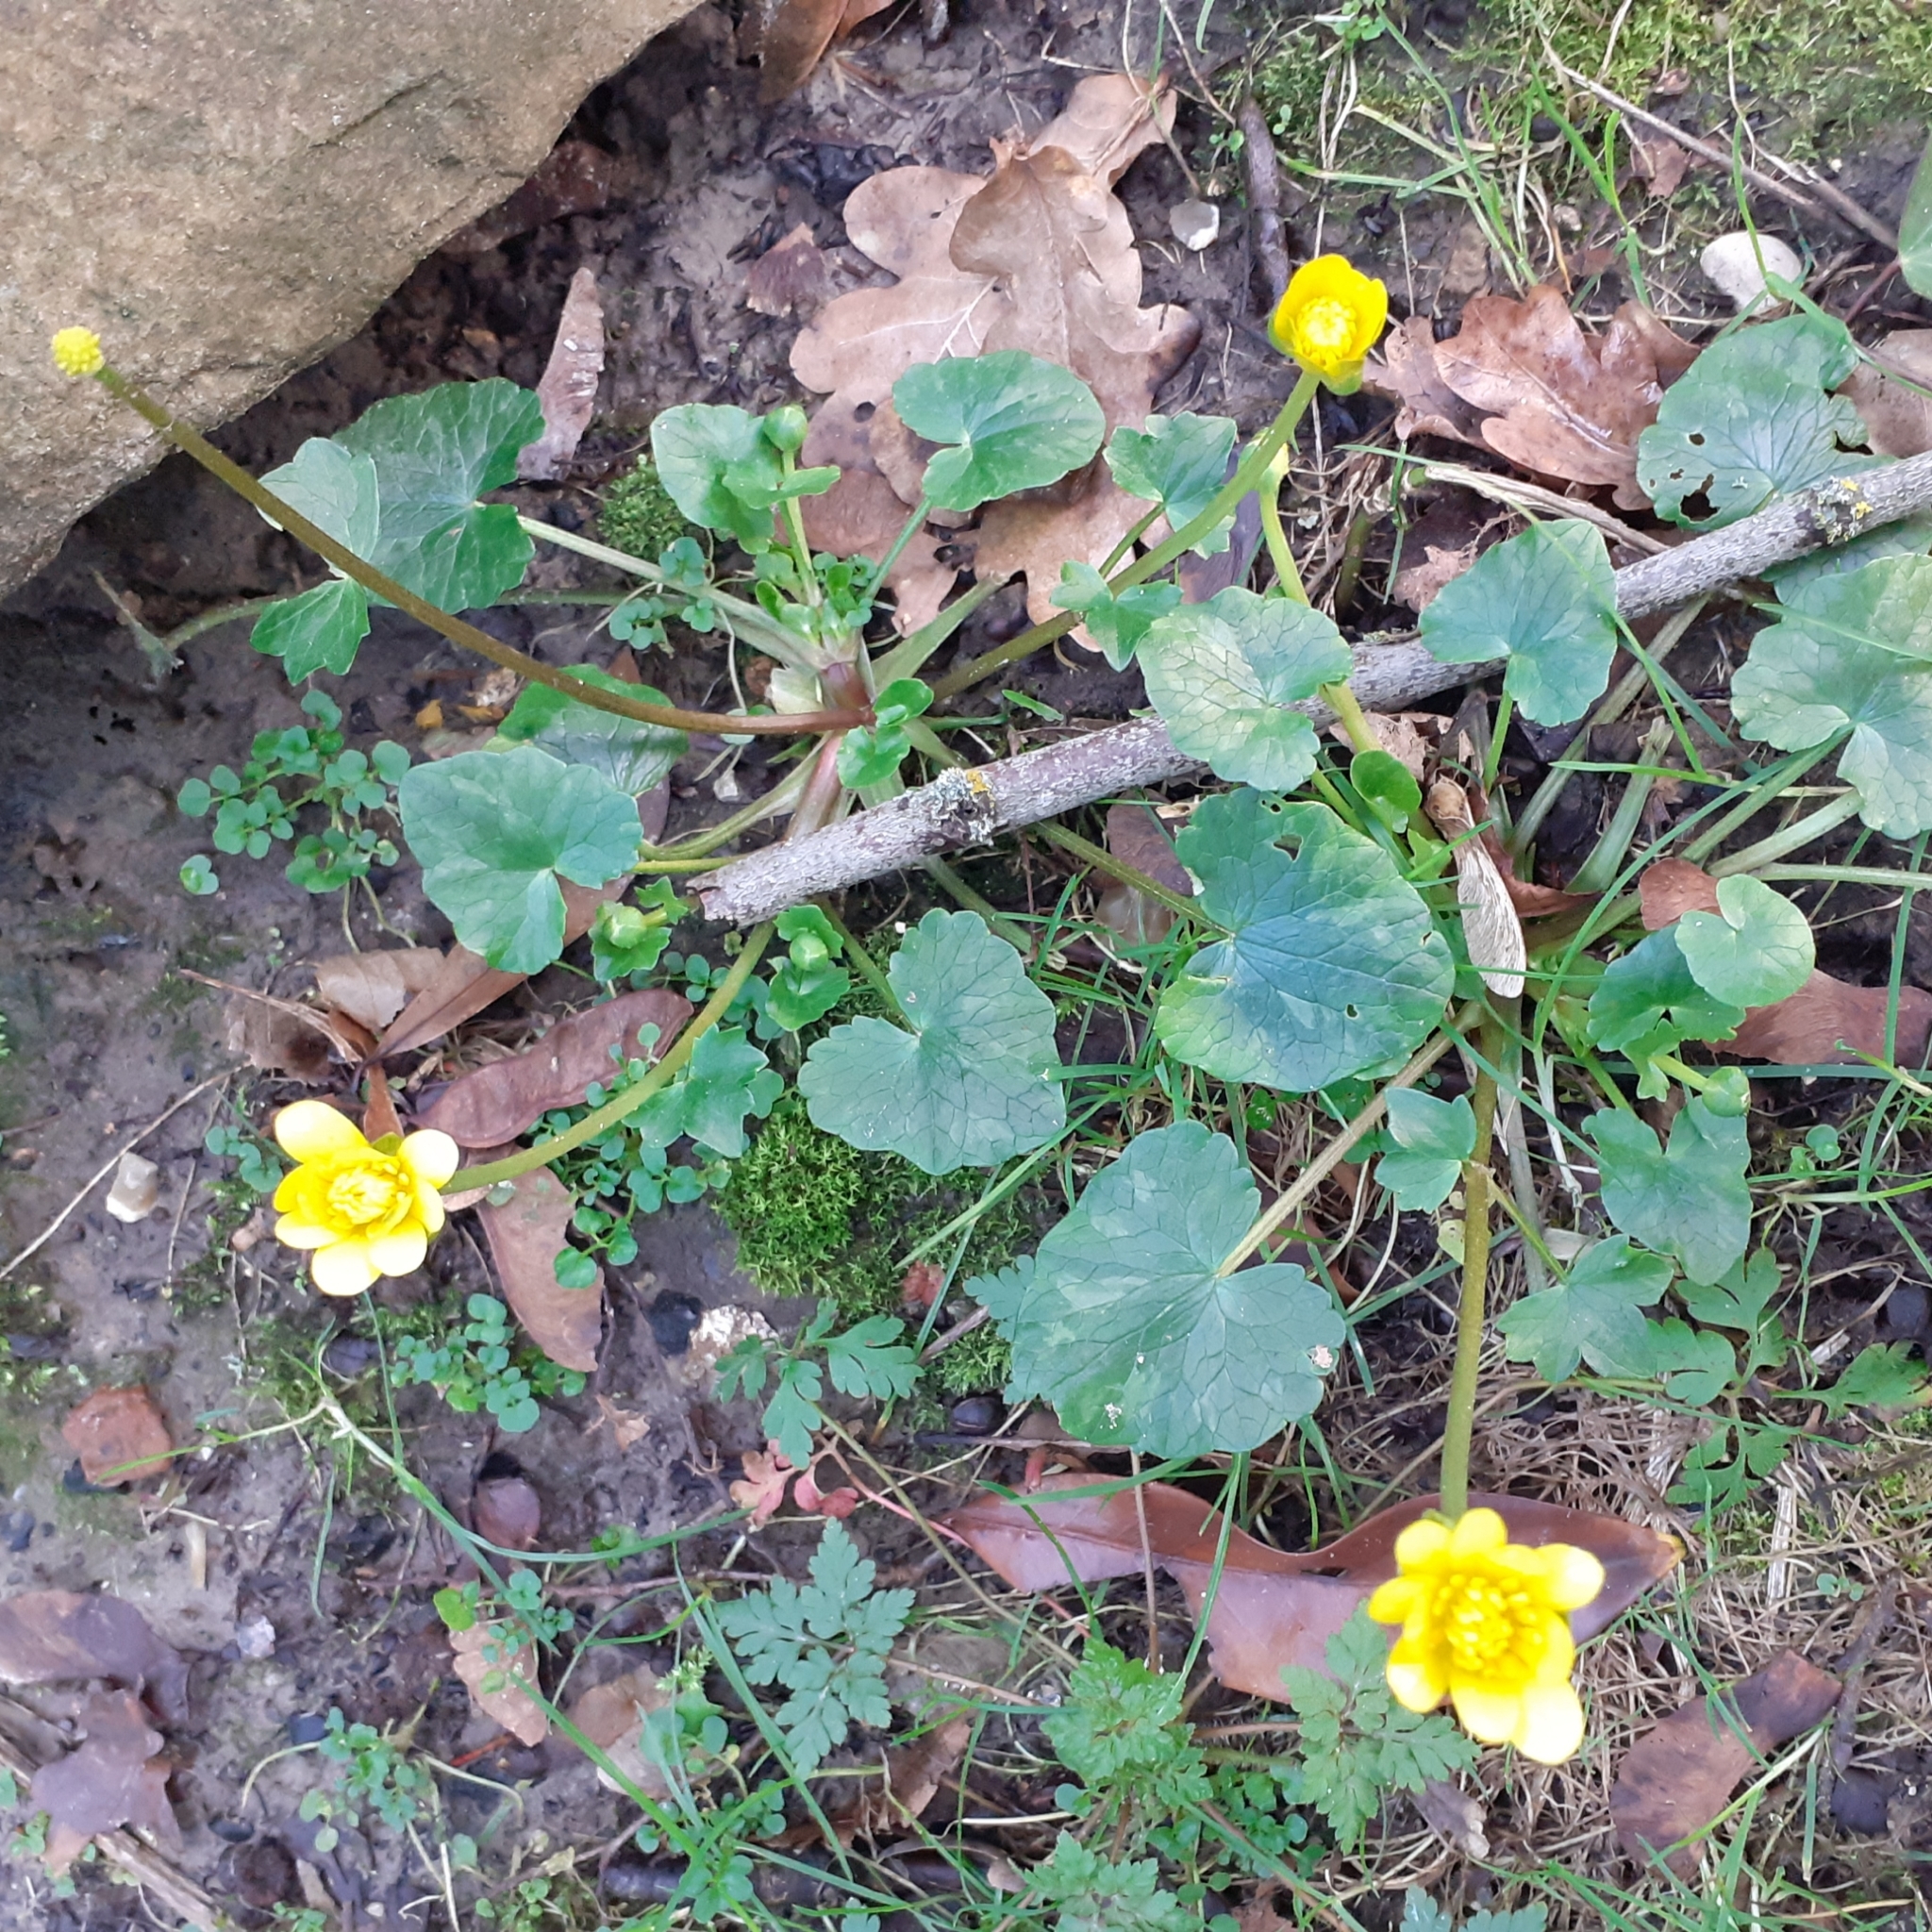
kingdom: Plantae
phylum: Tracheophyta
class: Magnoliopsida
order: Ranunculales
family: Ranunculaceae
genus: Ficaria
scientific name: Ficaria verna
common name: Lesser celandine
